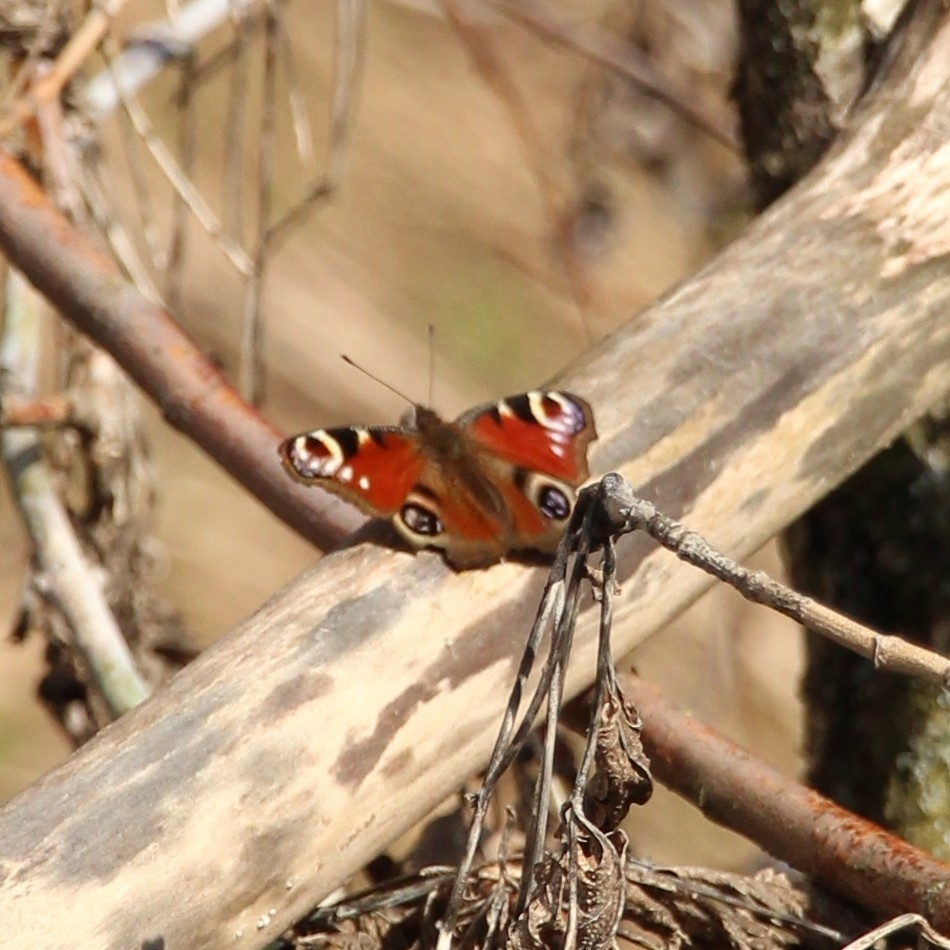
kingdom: Animalia
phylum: Arthropoda
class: Insecta
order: Lepidoptera
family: Nymphalidae
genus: Aglais
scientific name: Aglais io
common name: Peacock
